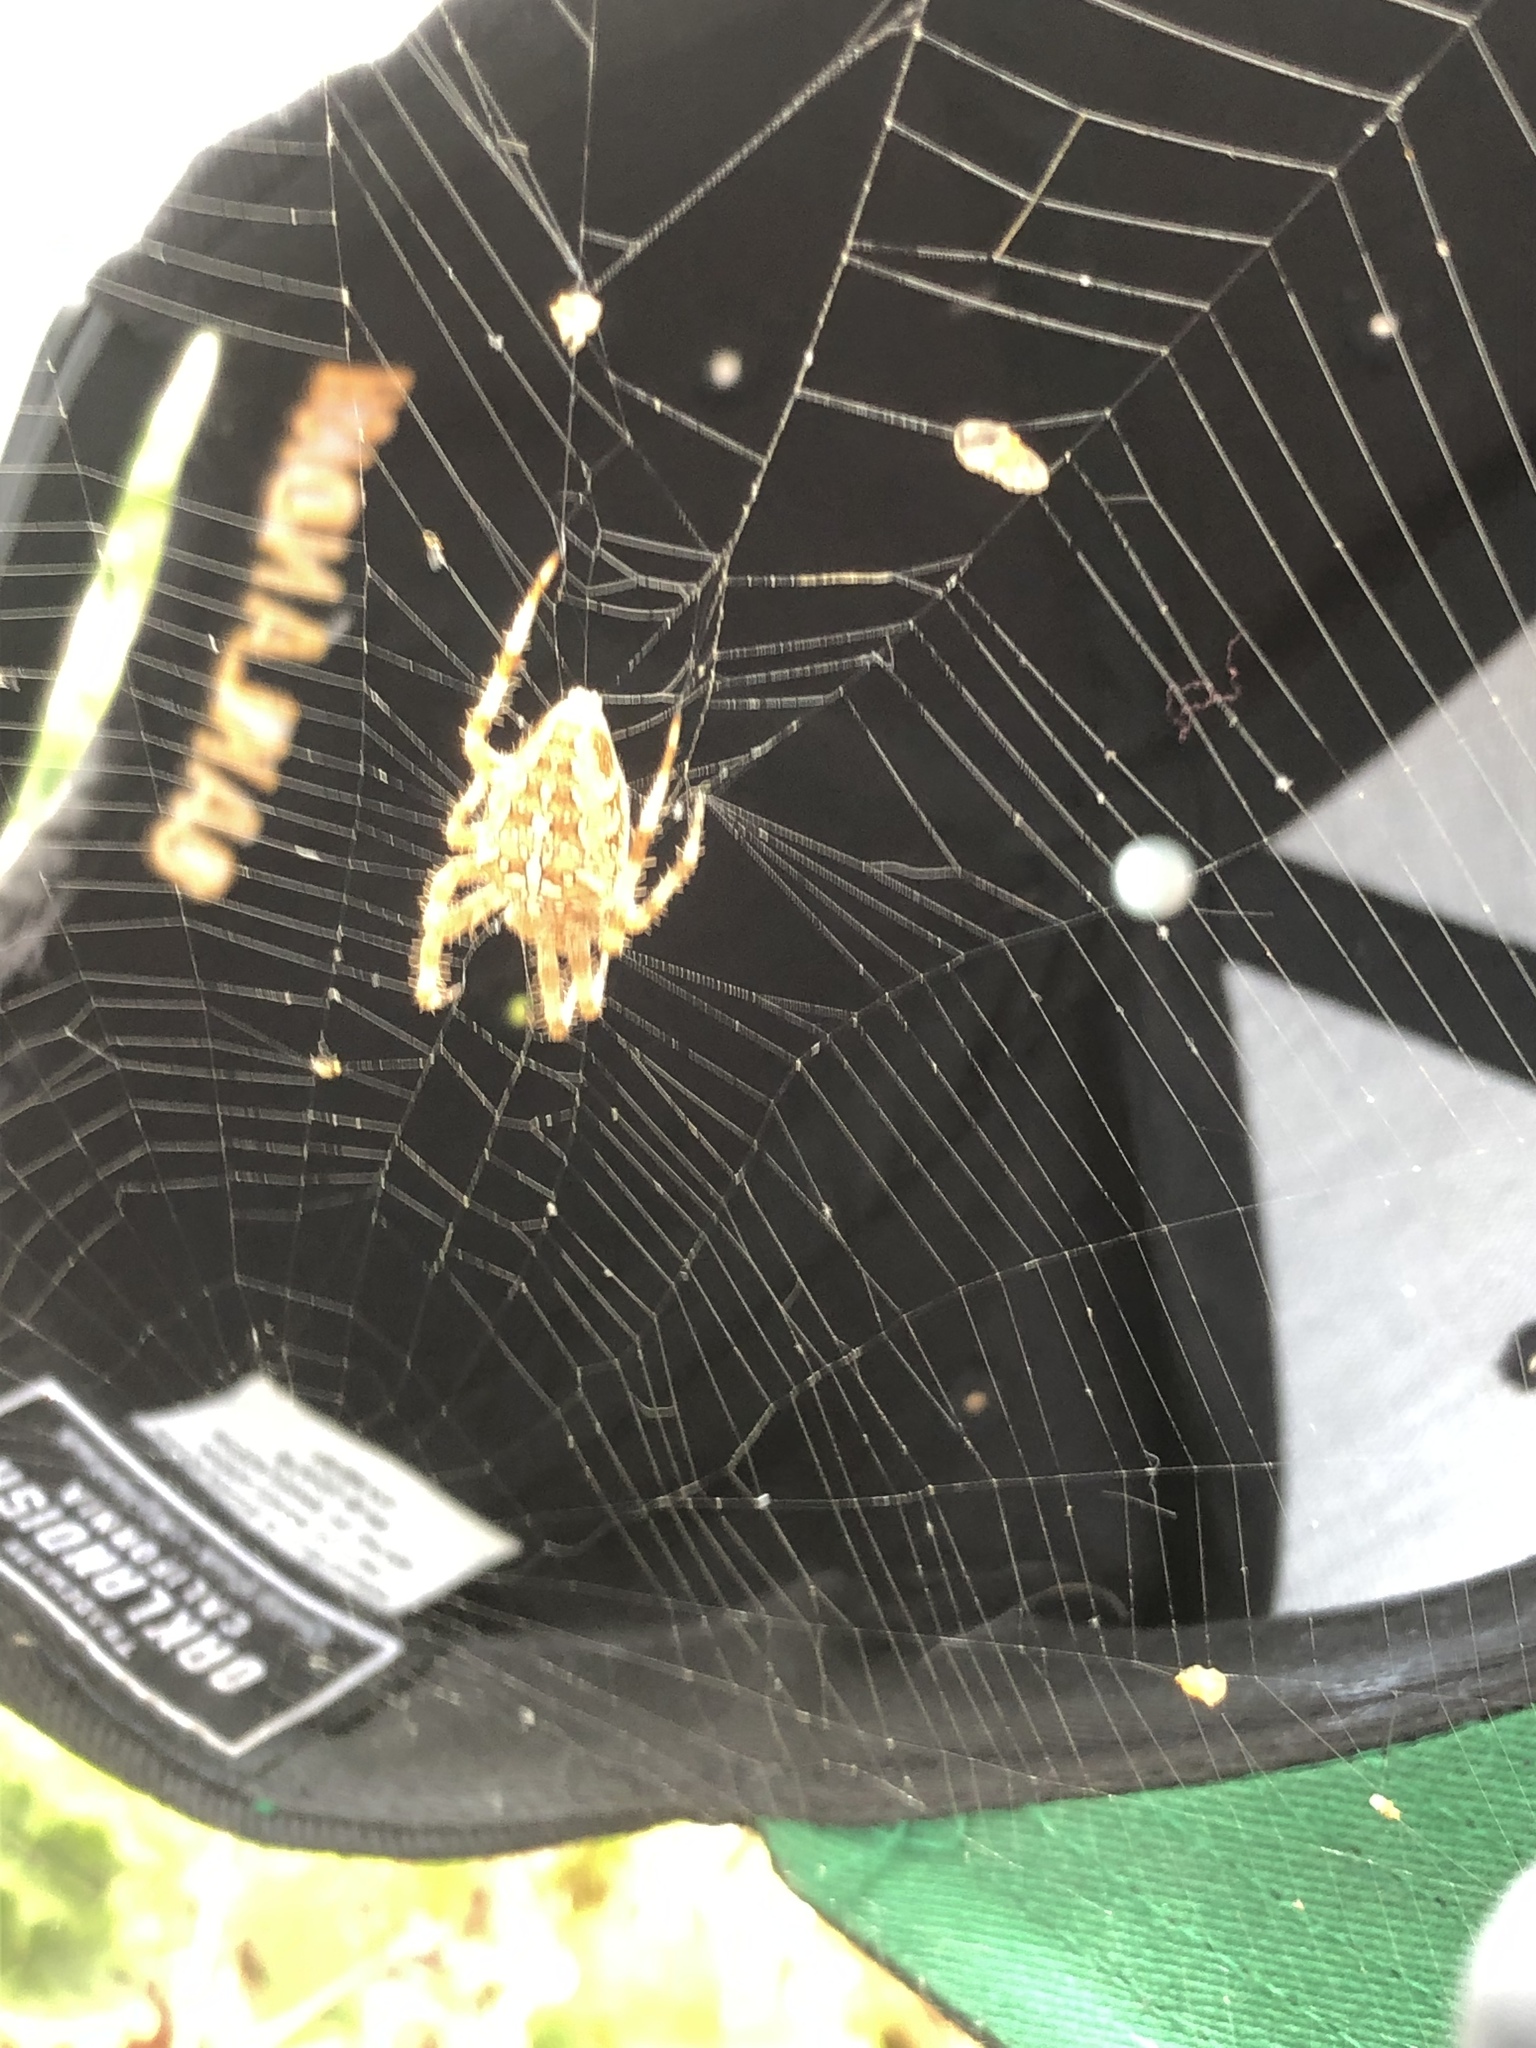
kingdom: Animalia
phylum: Arthropoda
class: Arachnida
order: Araneae
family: Araneidae
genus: Araneus
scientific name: Araneus diadematus
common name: Cross orbweaver
